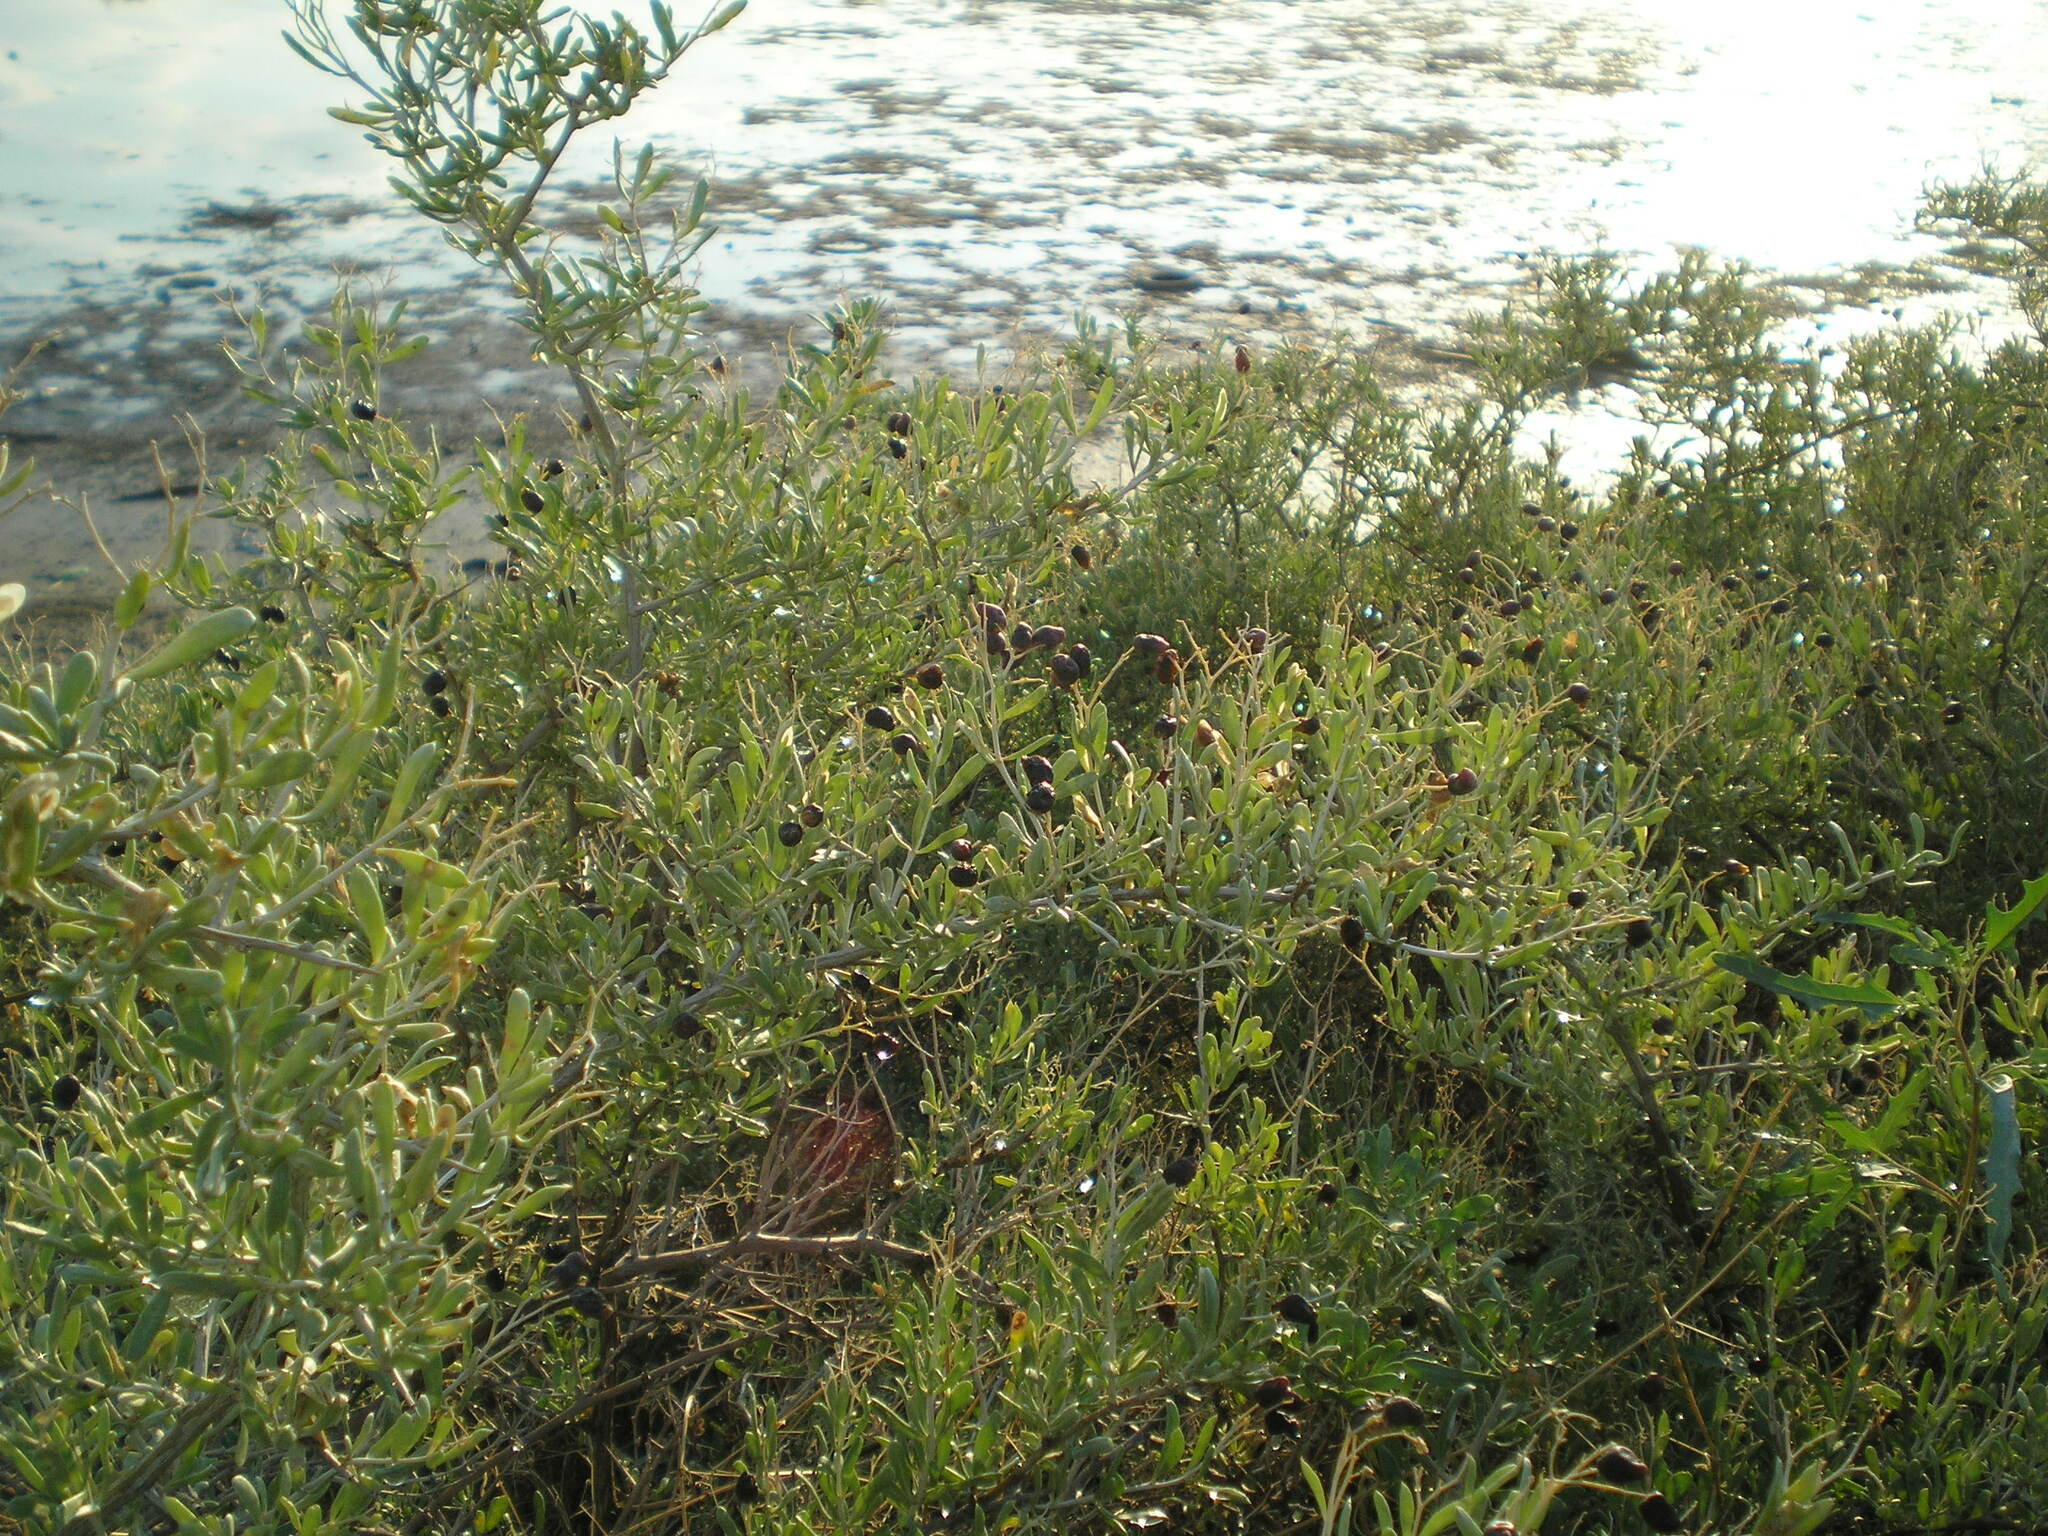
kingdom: Plantae
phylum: Tracheophyta
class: Magnoliopsida
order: Sapindales
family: Nitrariaceae
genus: Nitraria
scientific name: Nitraria schoberi
